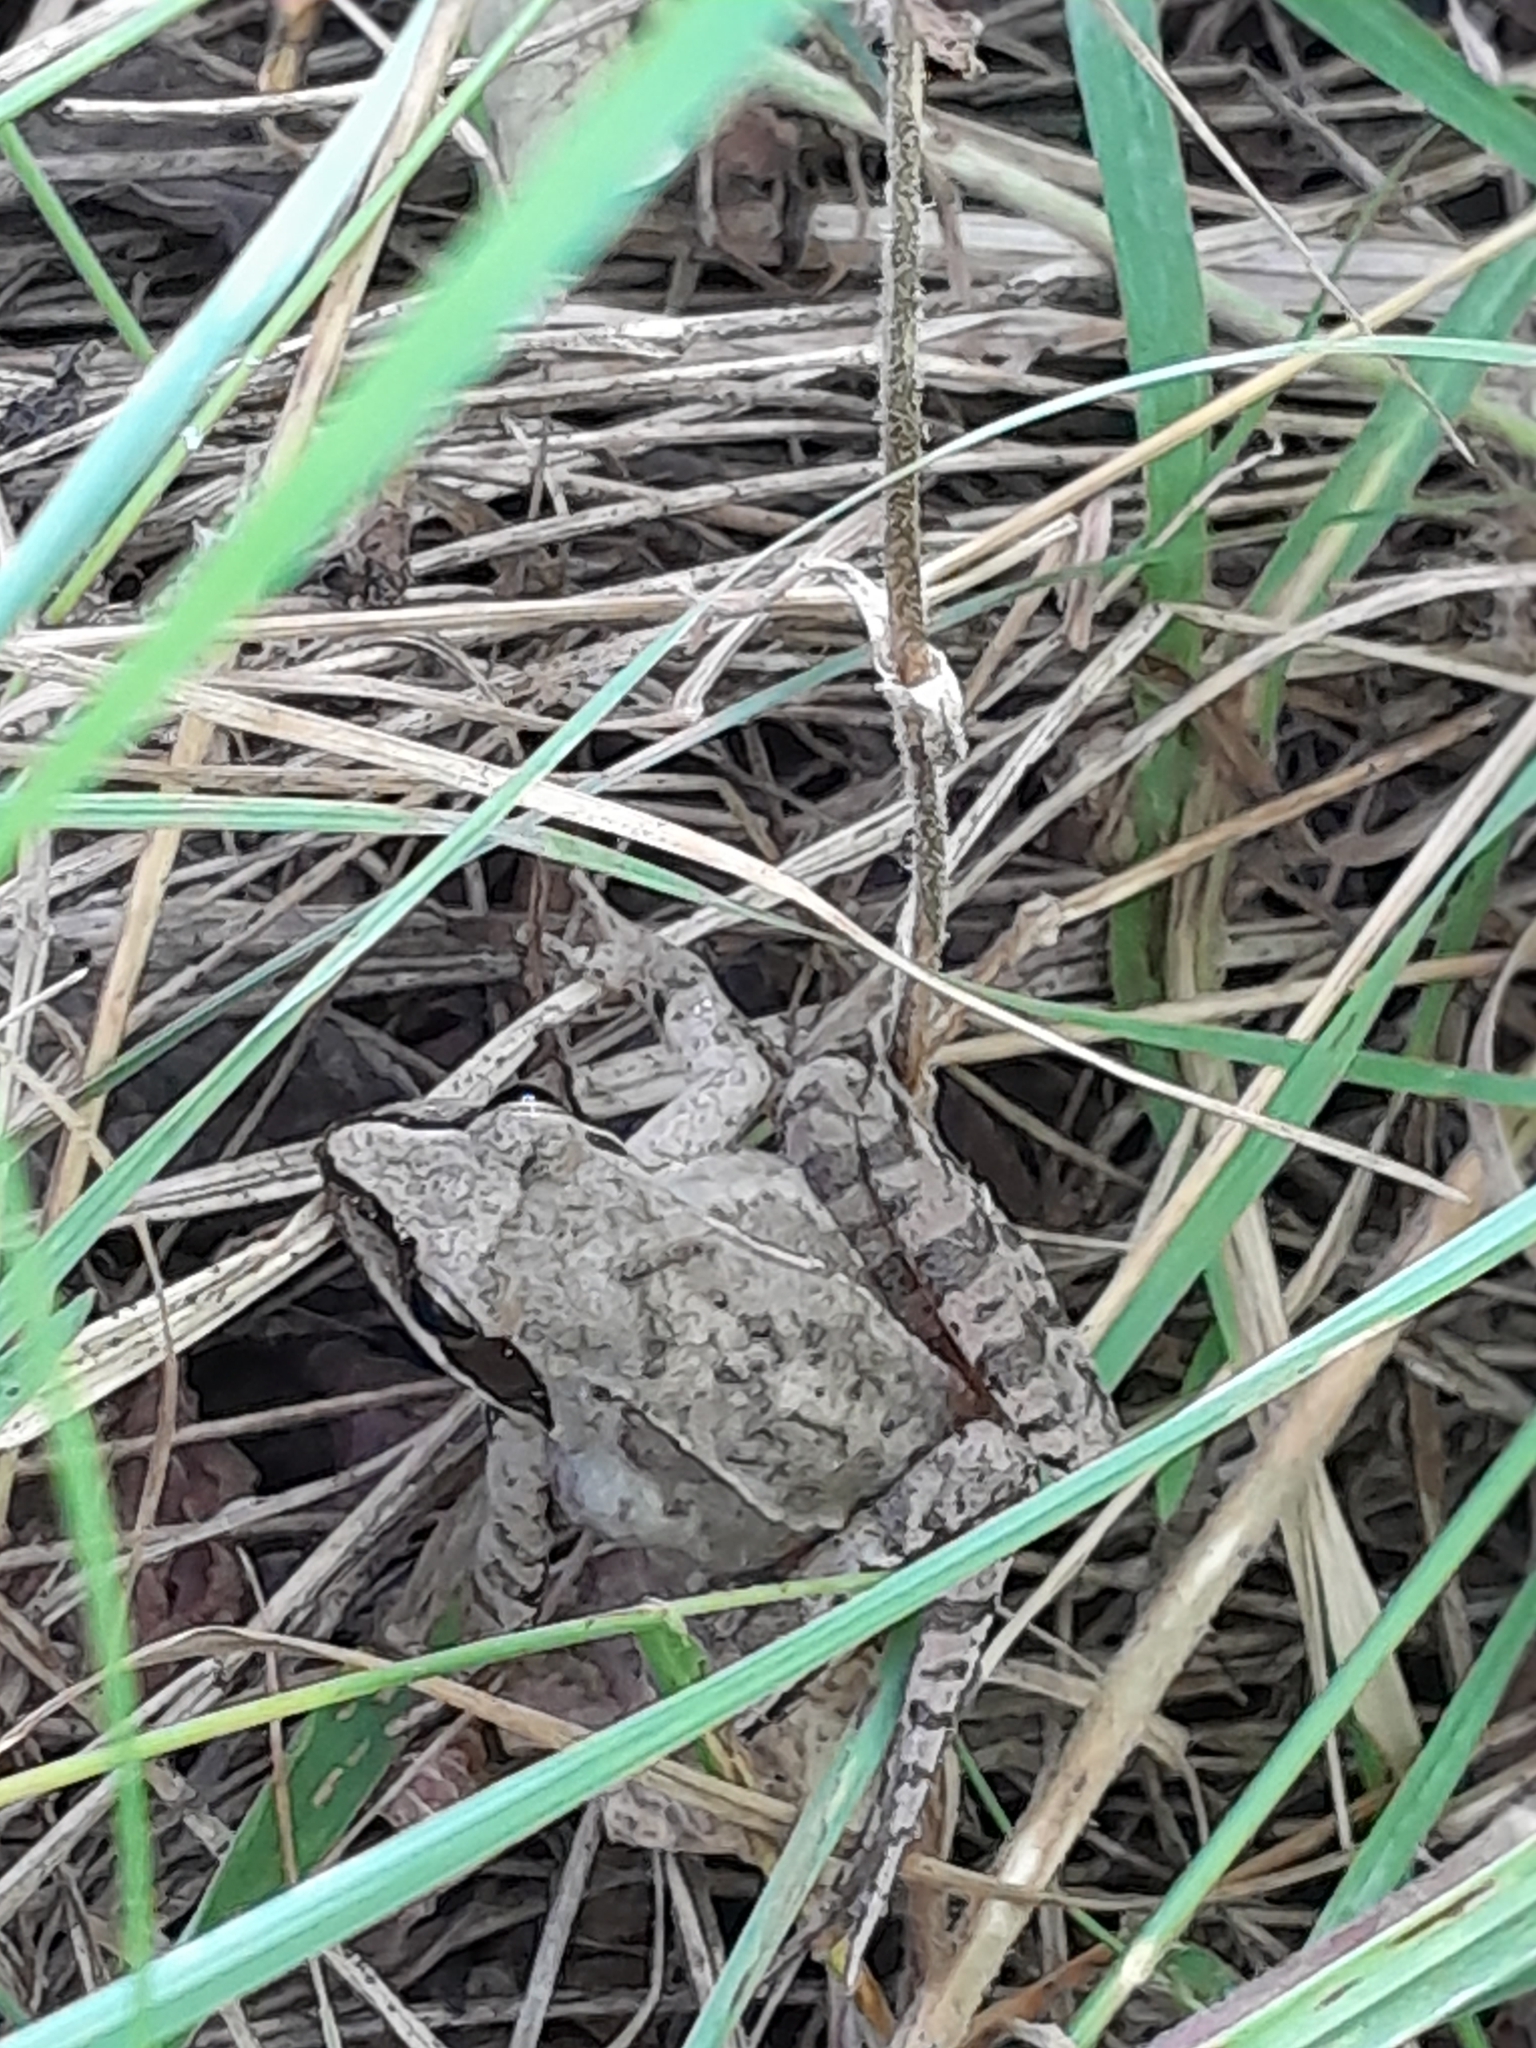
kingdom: Animalia
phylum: Chordata
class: Amphibia
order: Anura
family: Ranidae
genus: Rana
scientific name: Rana dalmatina
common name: Agile frog
